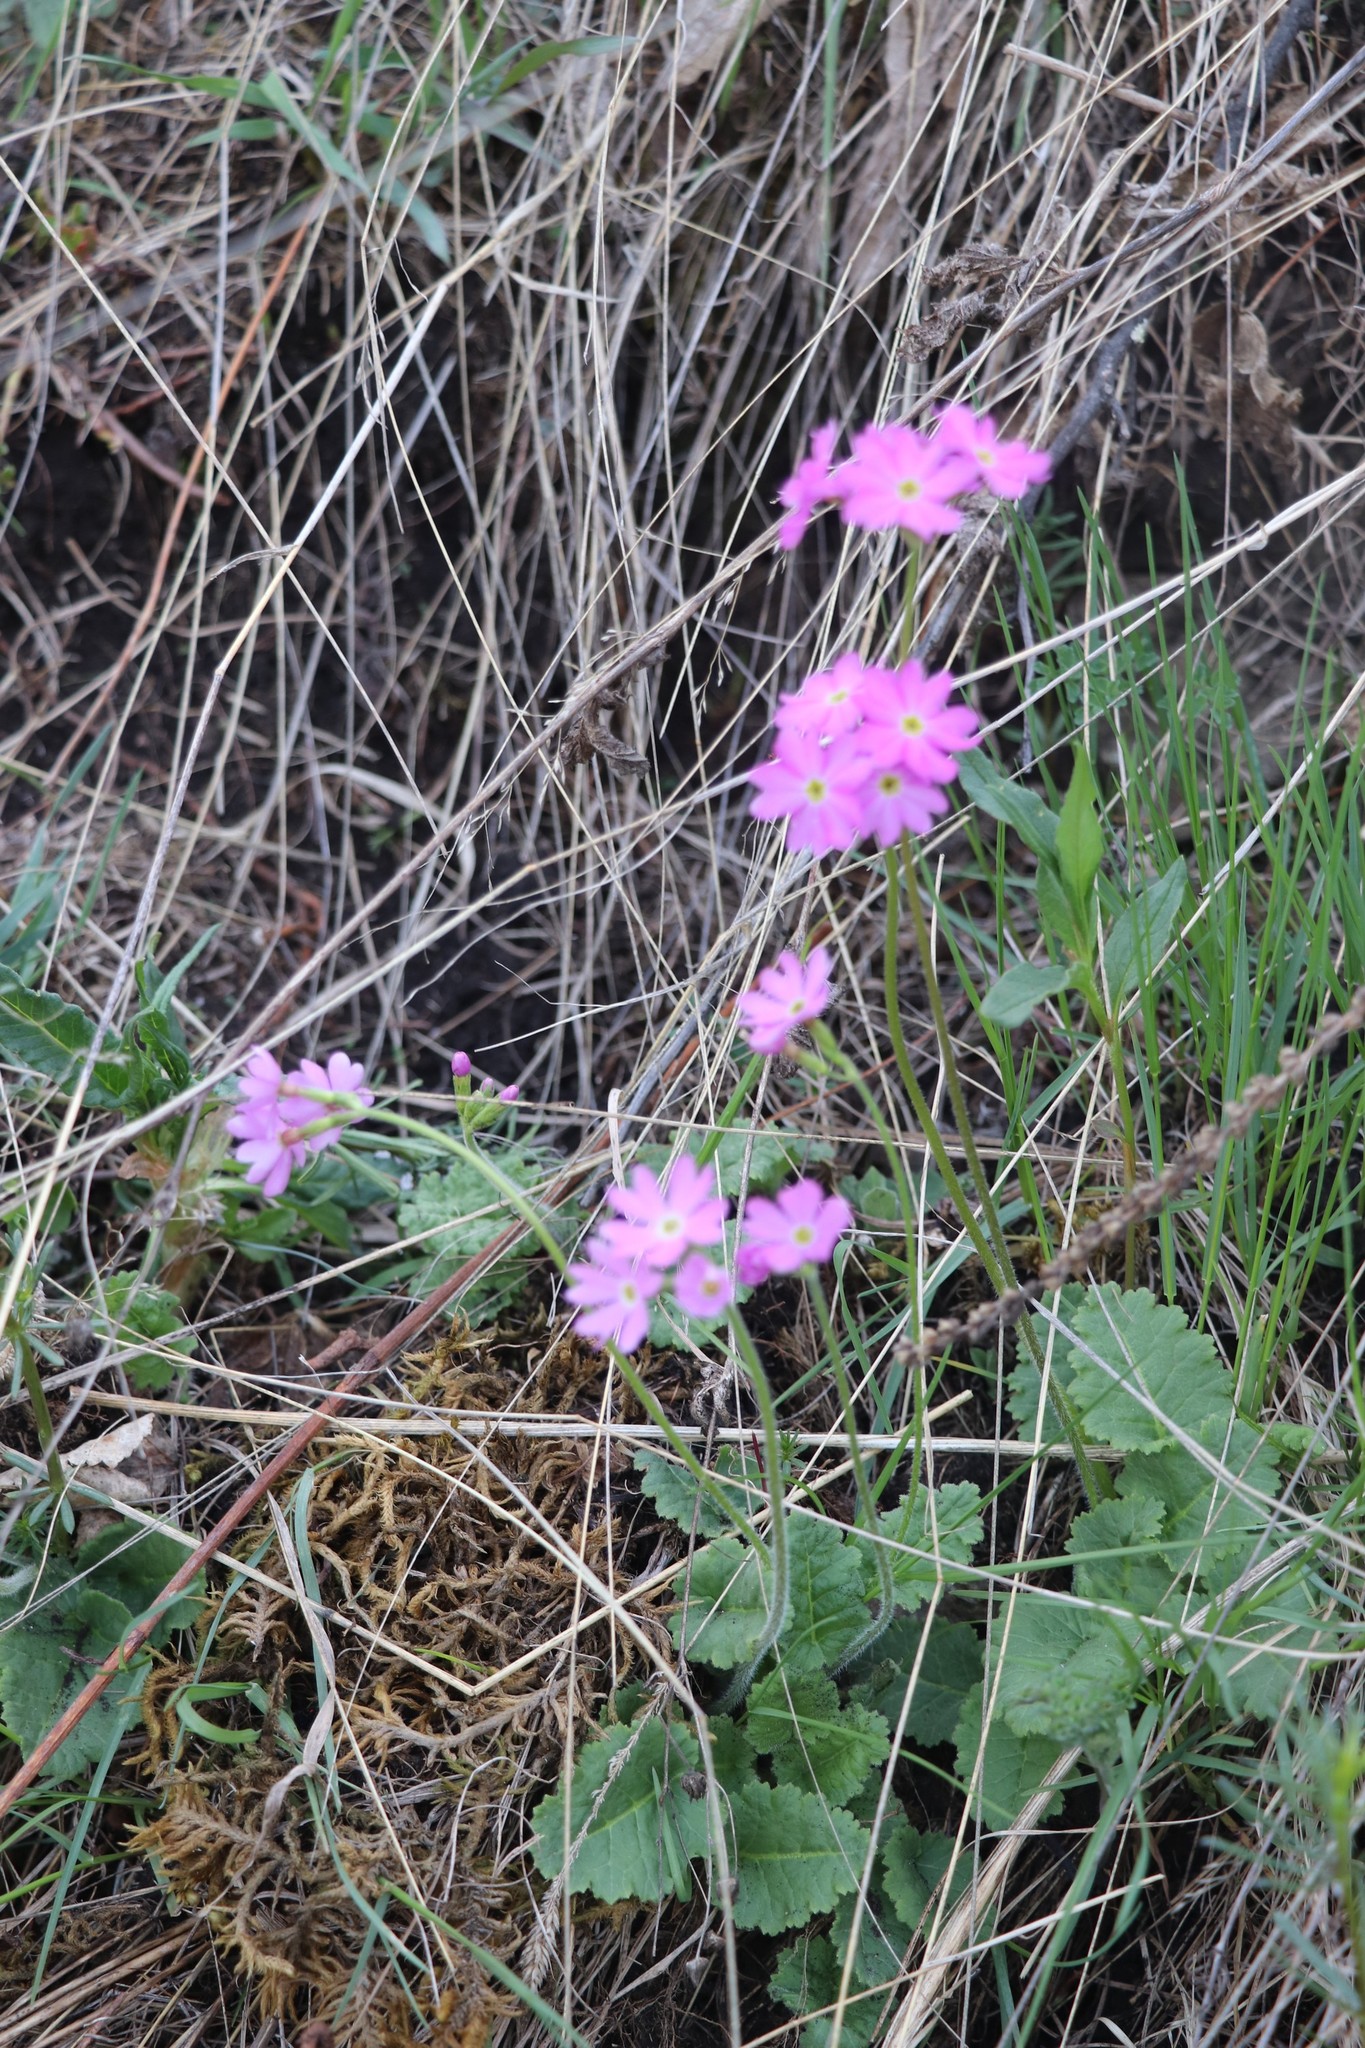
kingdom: Plantae
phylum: Tracheophyta
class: Magnoliopsida
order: Ericales
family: Primulaceae
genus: Primula
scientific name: Primula cortusoides
